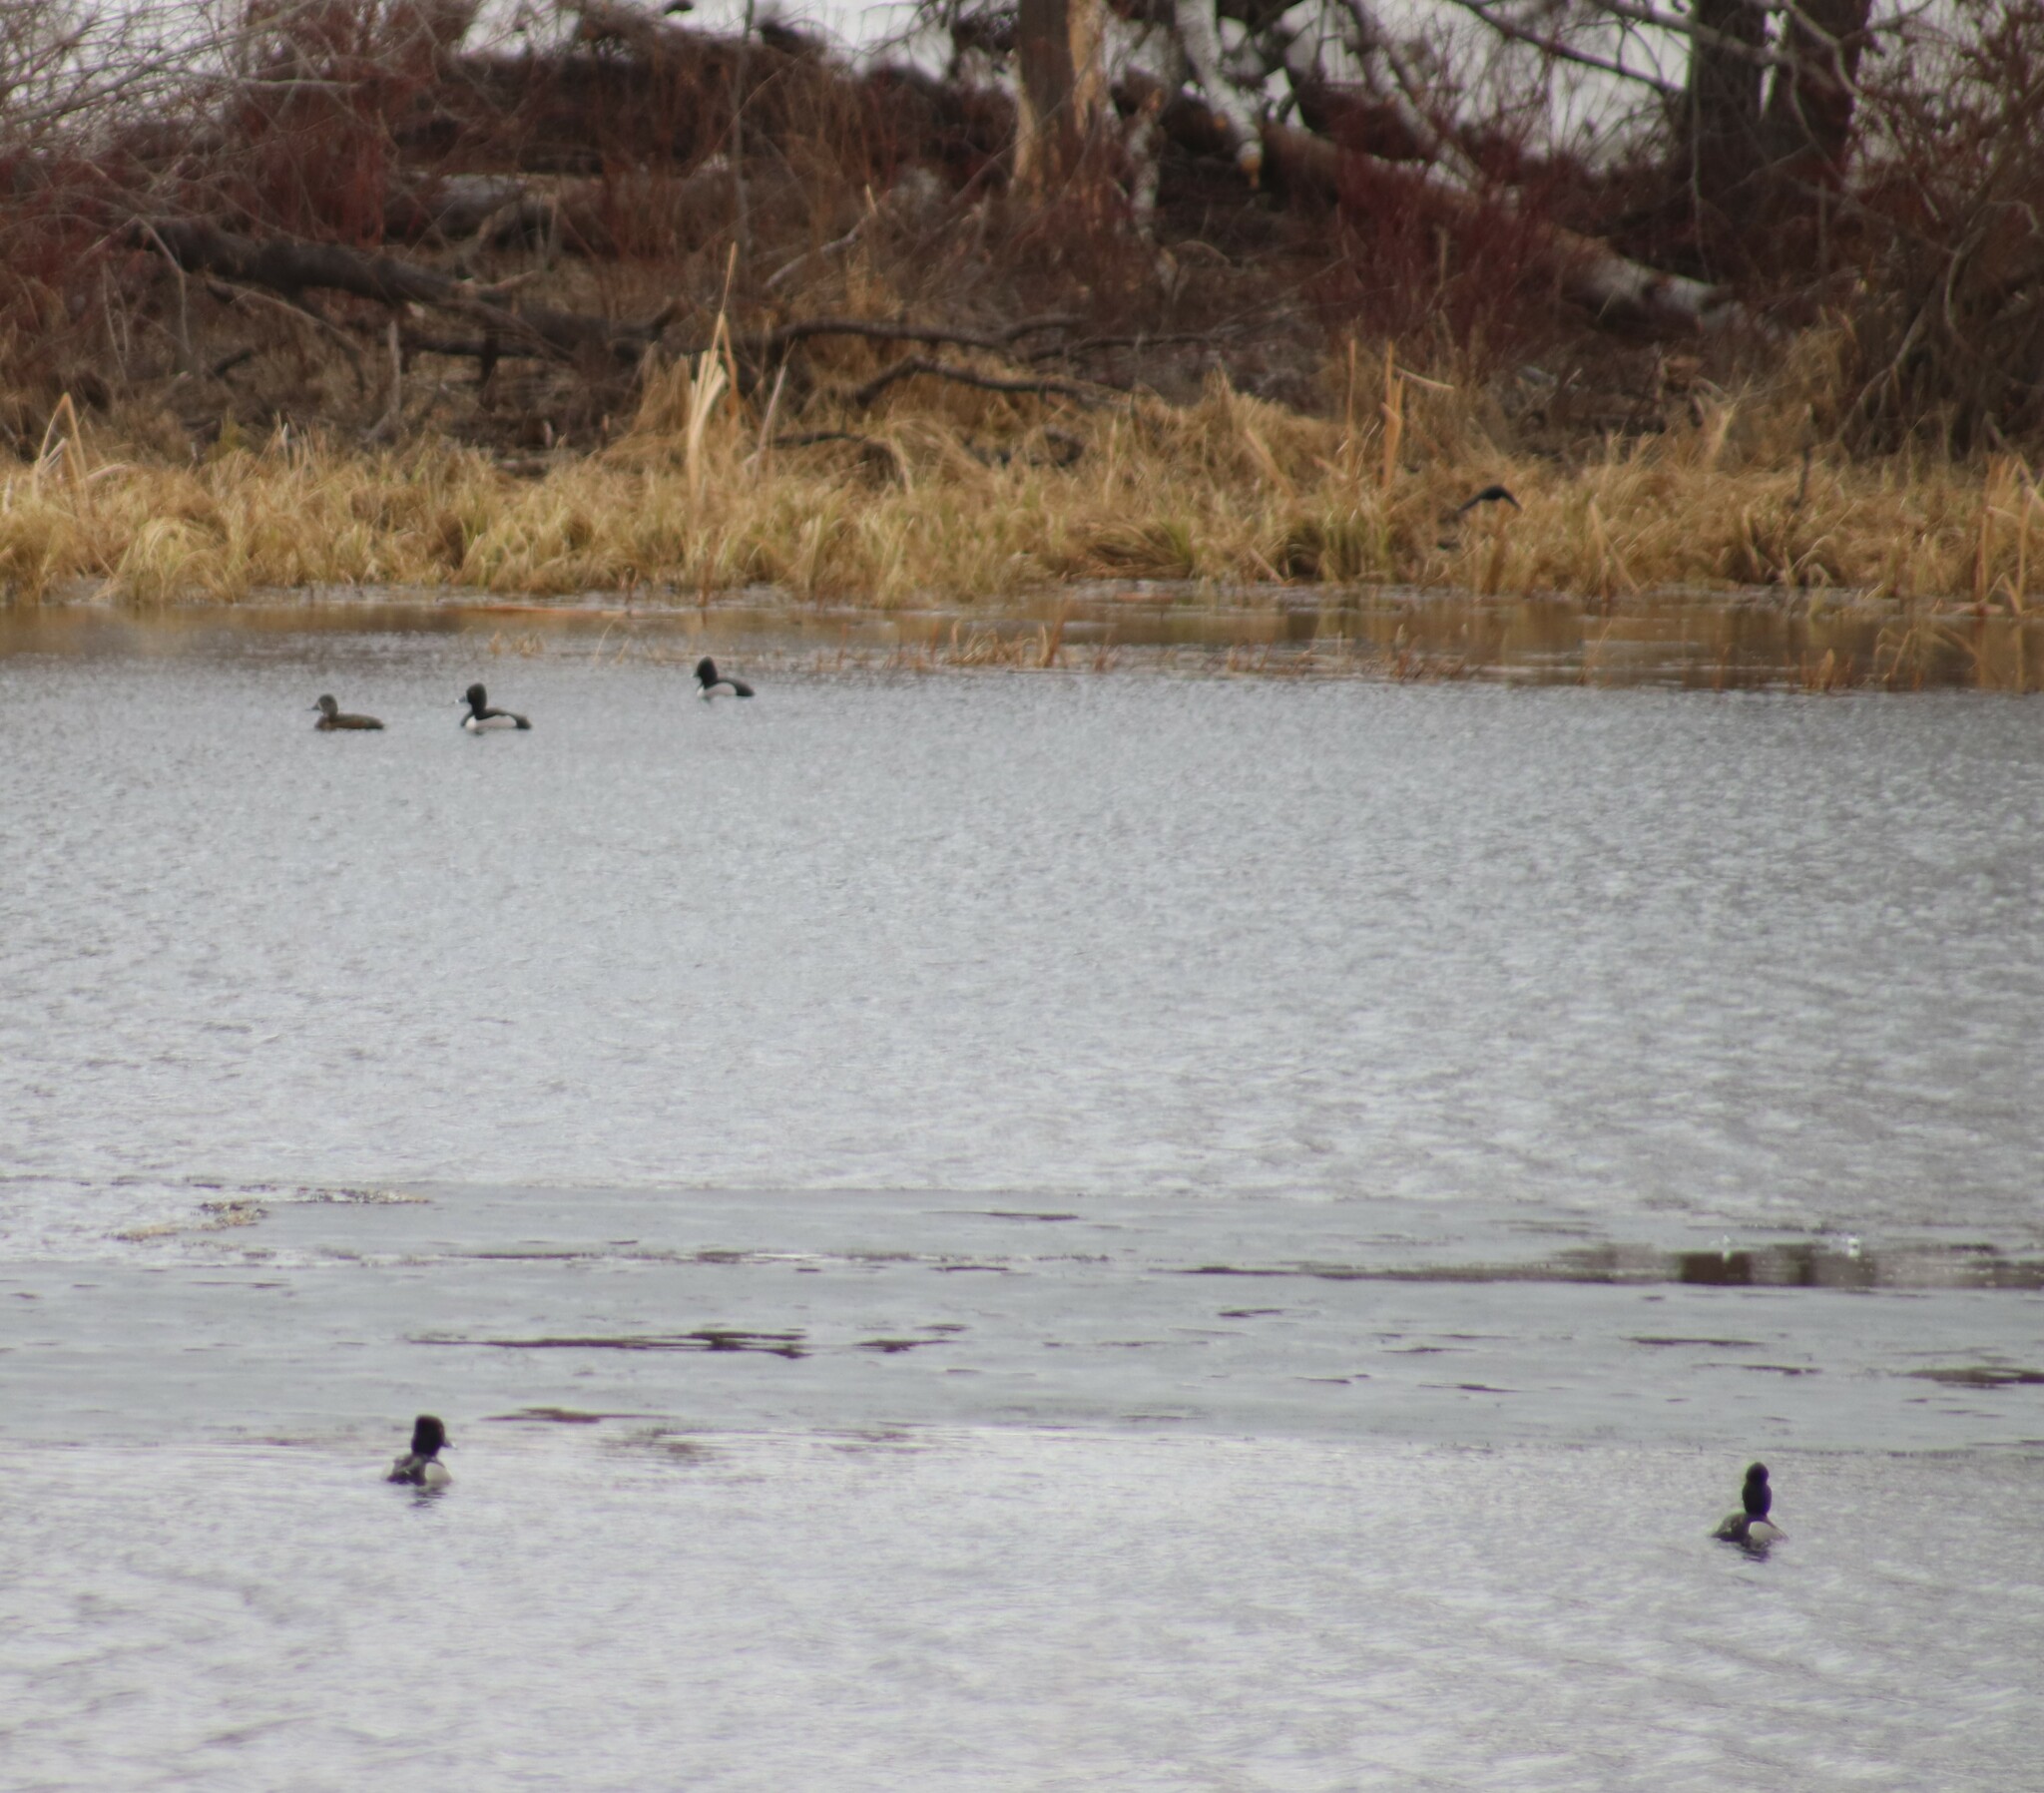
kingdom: Animalia
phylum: Chordata
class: Aves
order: Anseriformes
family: Anatidae
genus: Aythya
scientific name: Aythya collaris
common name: Ring-necked duck
